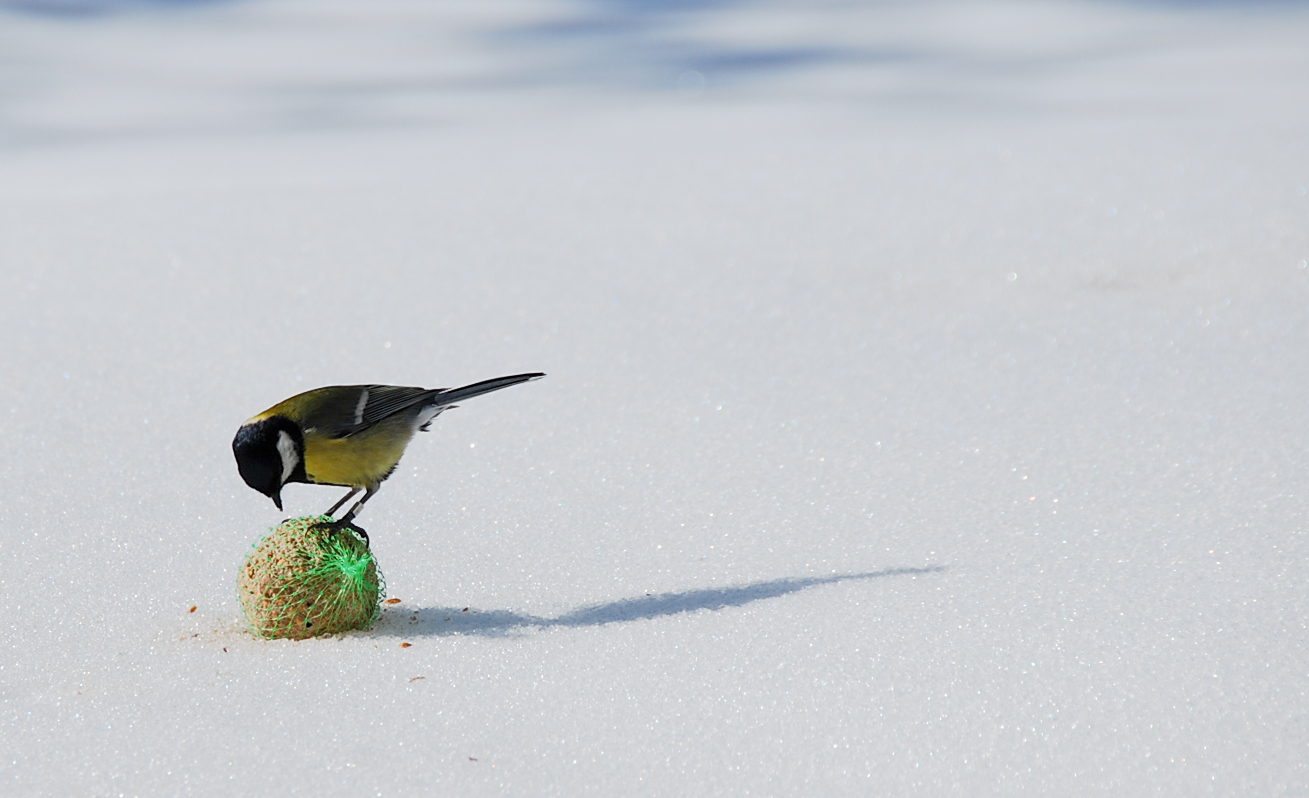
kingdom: Animalia
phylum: Chordata
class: Aves
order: Passeriformes
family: Paridae
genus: Parus
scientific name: Parus major
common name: Great tit
